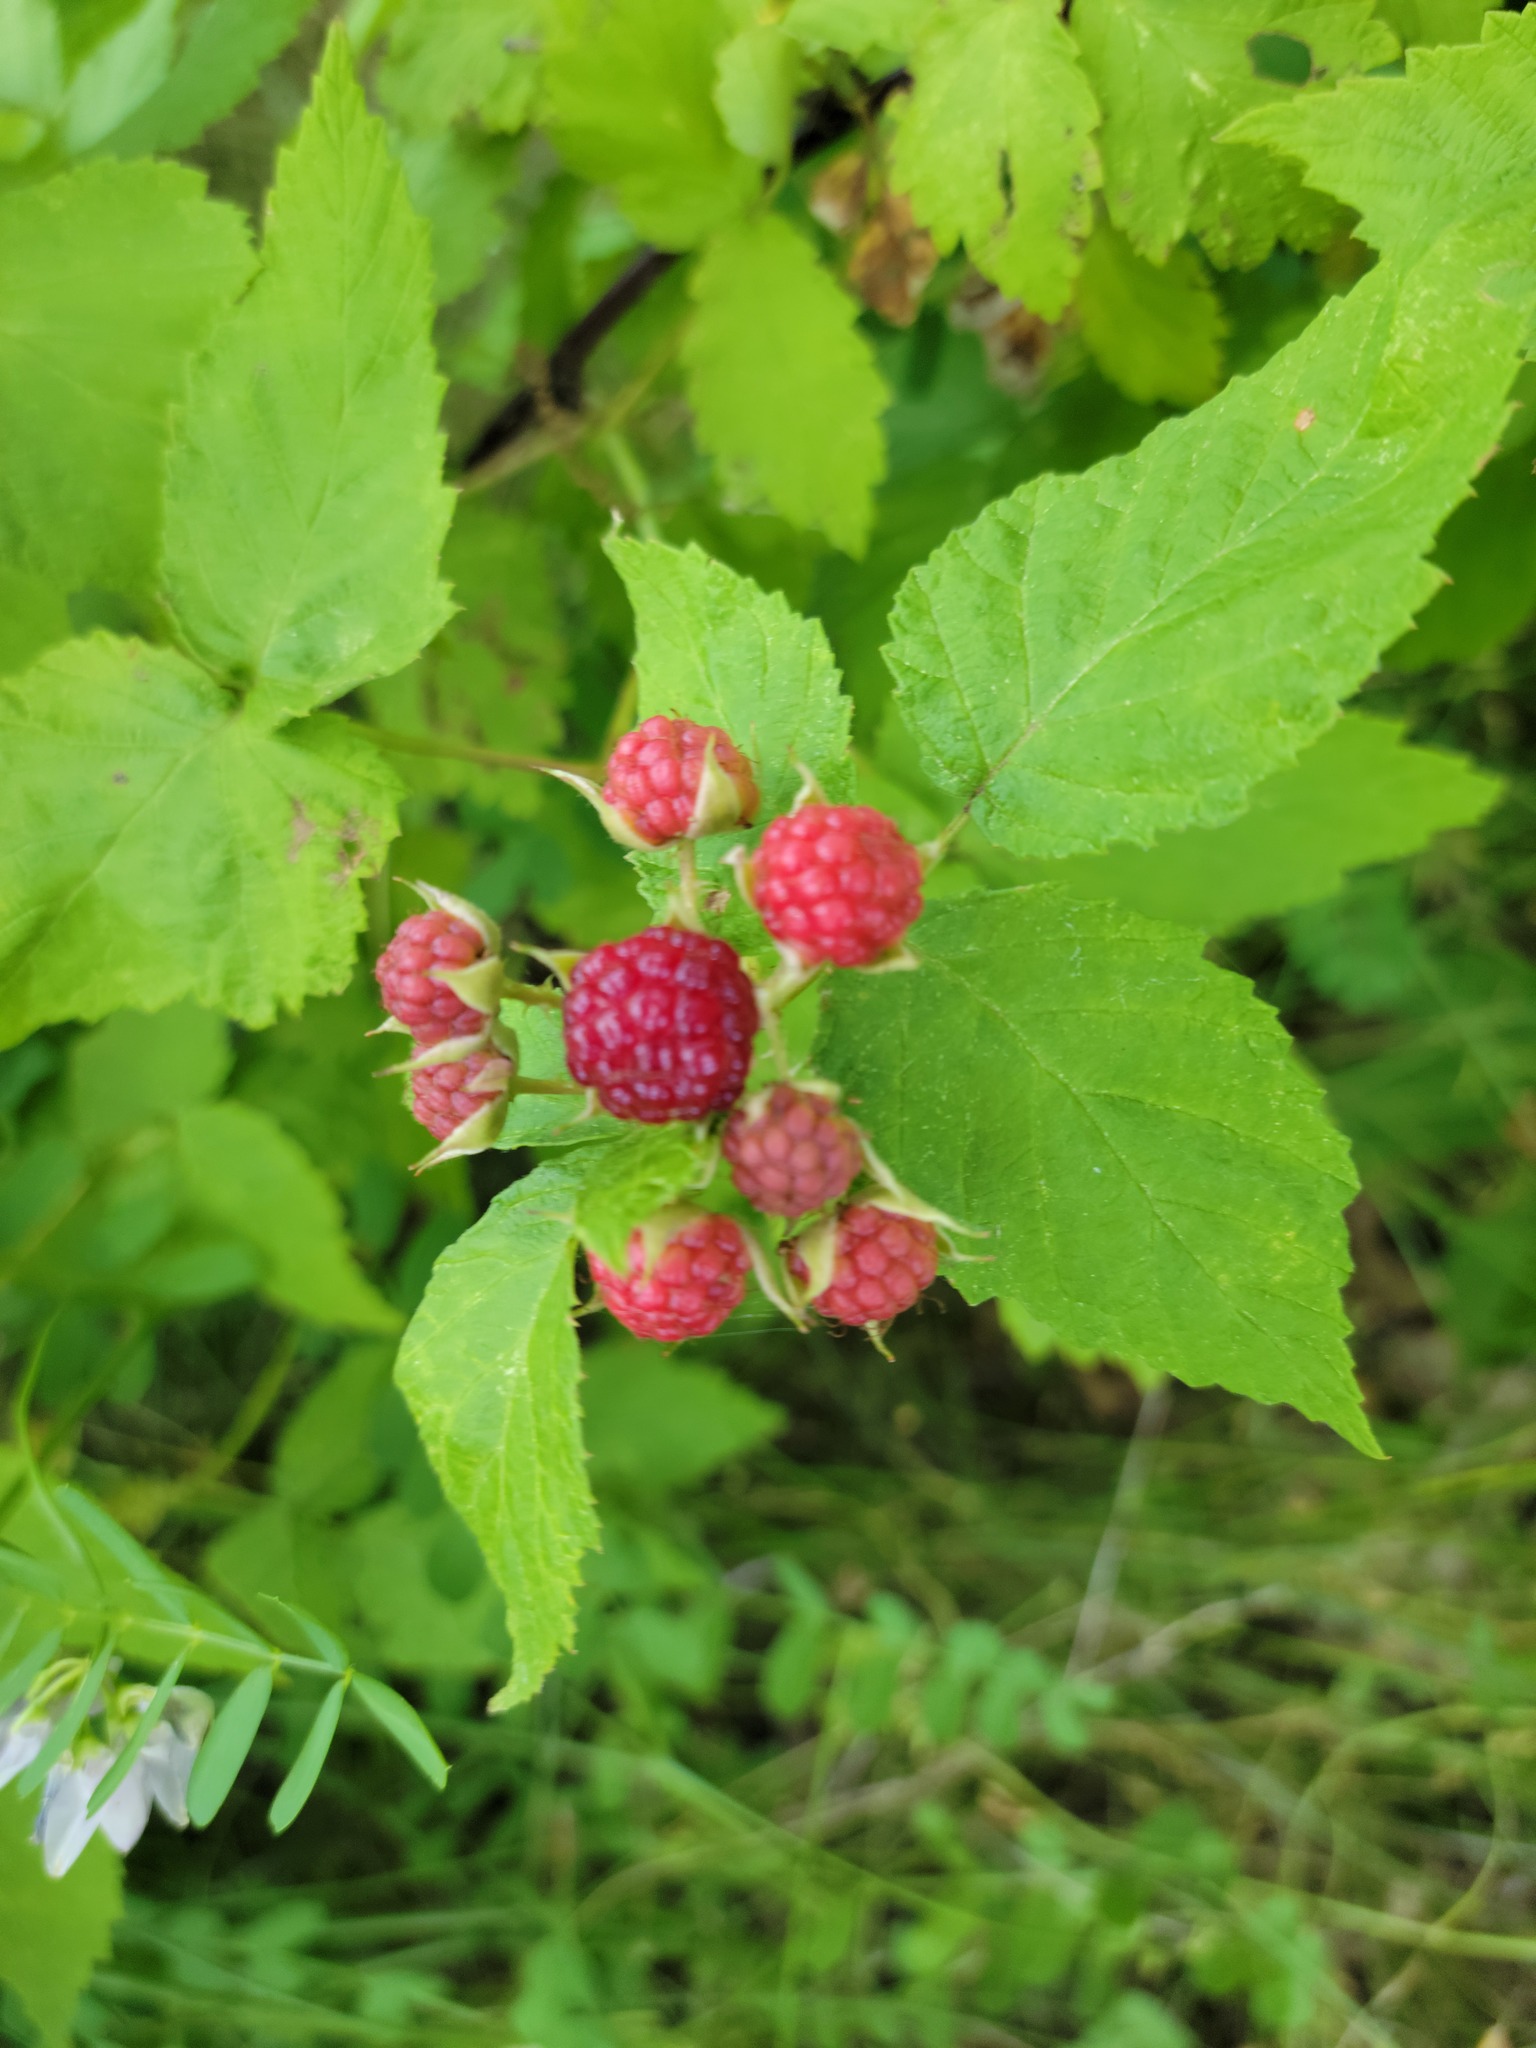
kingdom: Plantae
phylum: Tracheophyta
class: Magnoliopsida
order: Rosales
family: Rosaceae
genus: Rubus
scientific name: Rubus occidentalis
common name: Black raspberry
